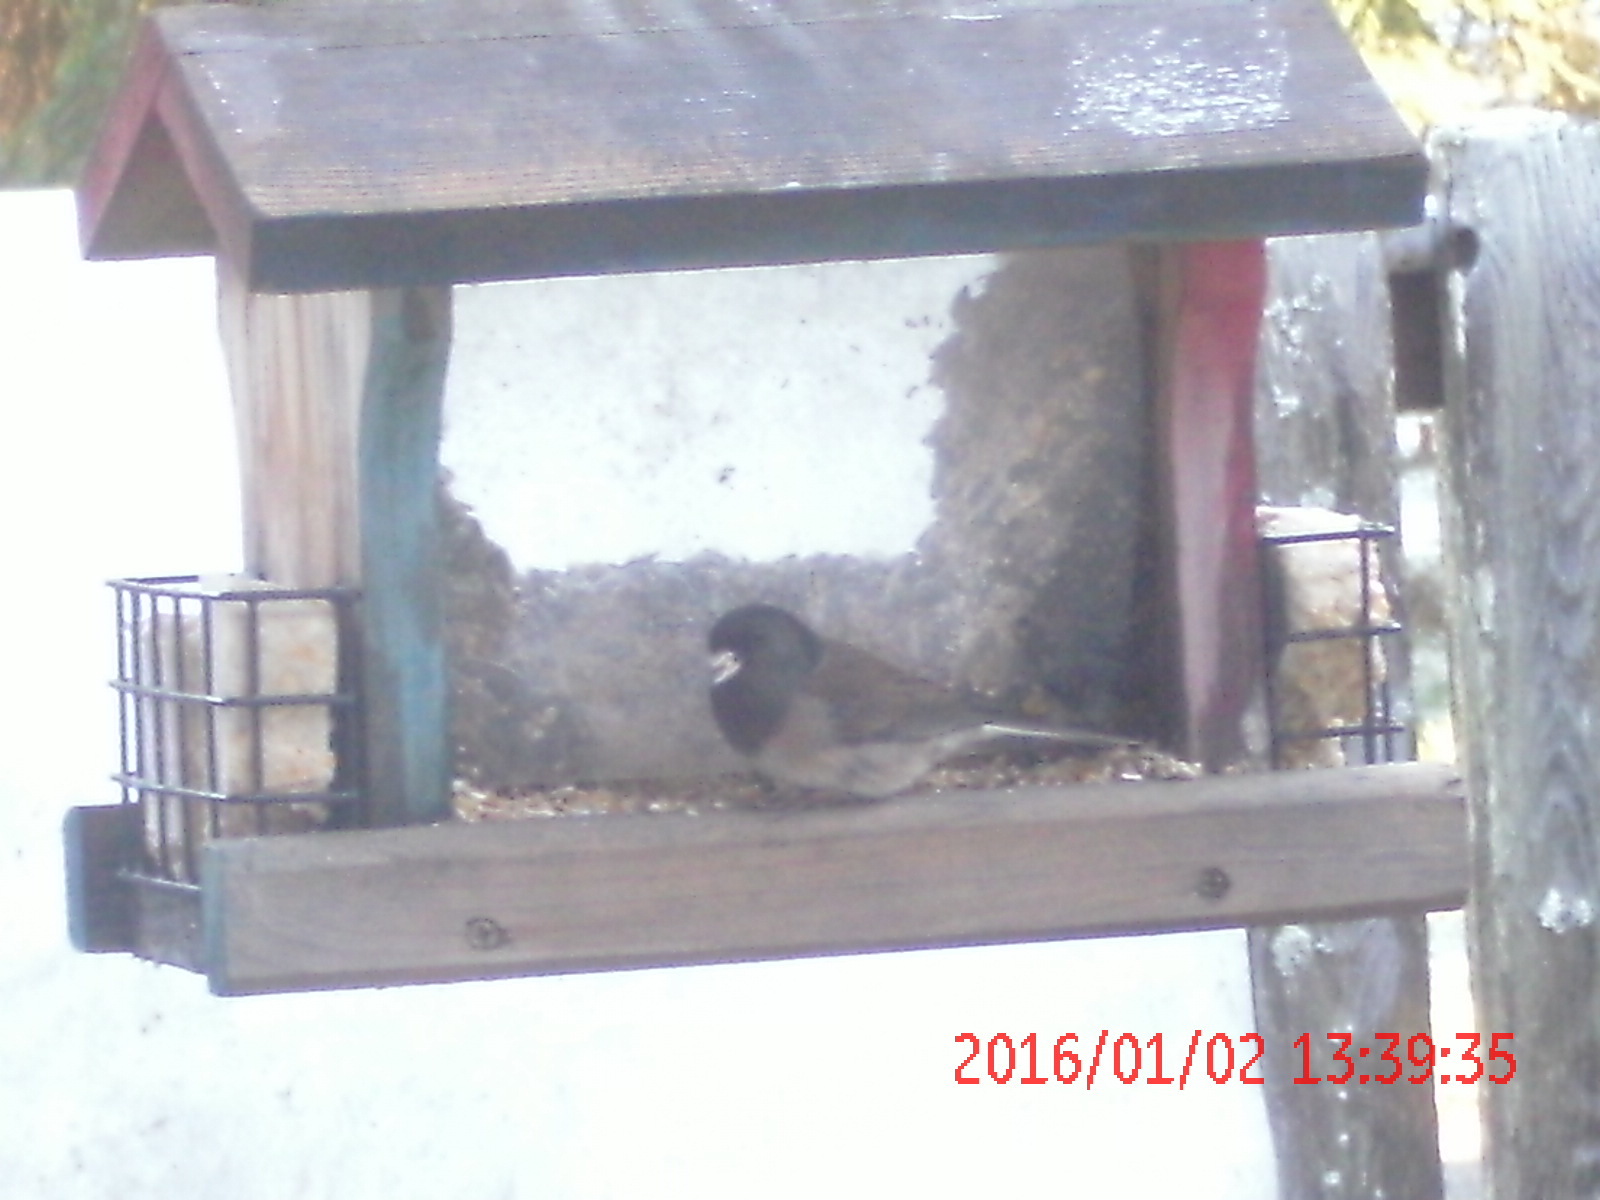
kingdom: Animalia
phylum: Chordata
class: Aves
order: Passeriformes
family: Passerellidae
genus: Junco
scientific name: Junco hyemalis
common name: Dark-eyed junco
